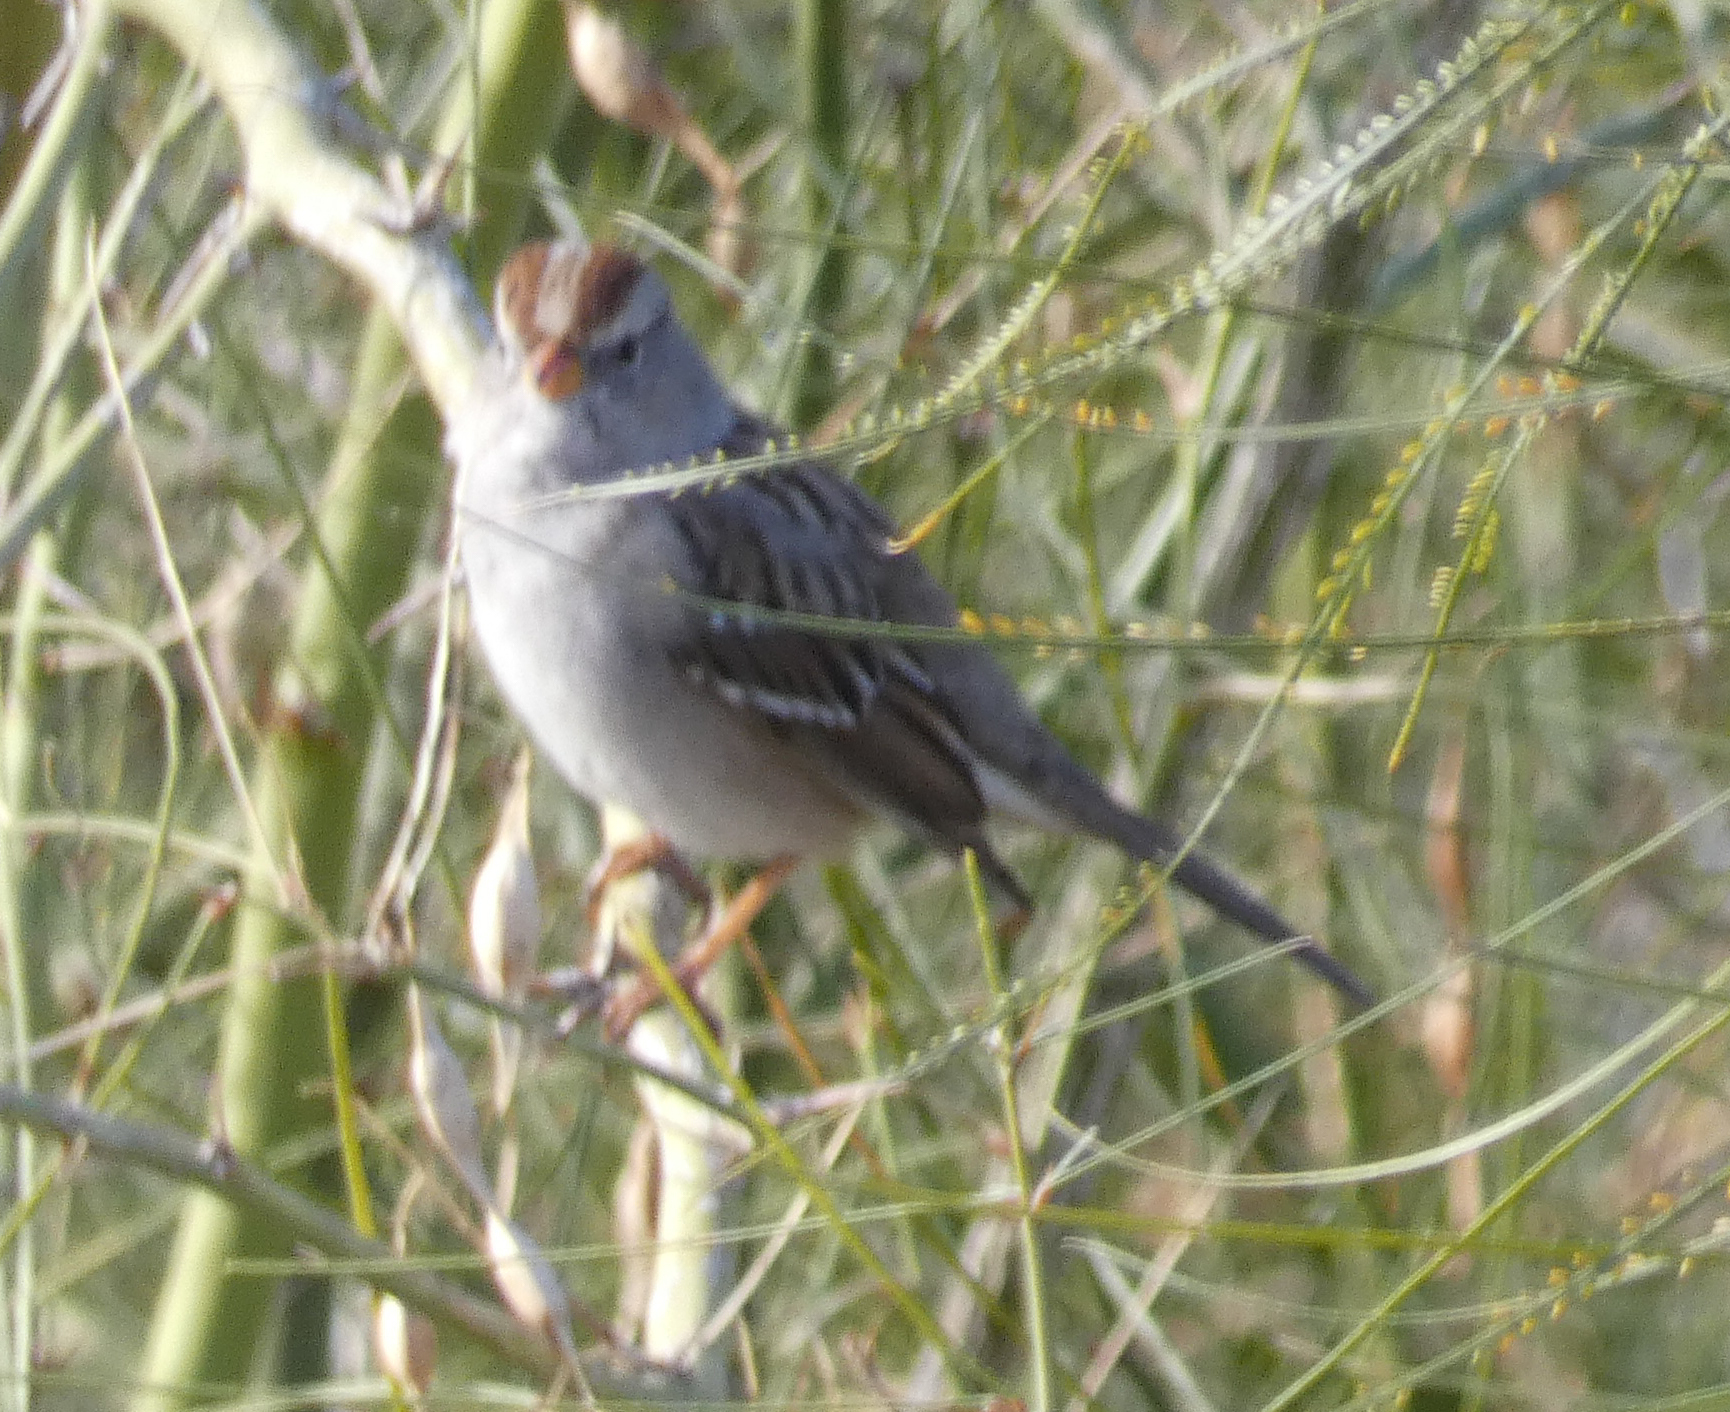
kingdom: Animalia
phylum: Chordata
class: Aves
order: Passeriformes
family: Passerellidae
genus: Zonotrichia
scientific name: Zonotrichia leucophrys
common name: White-crowned sparrow
